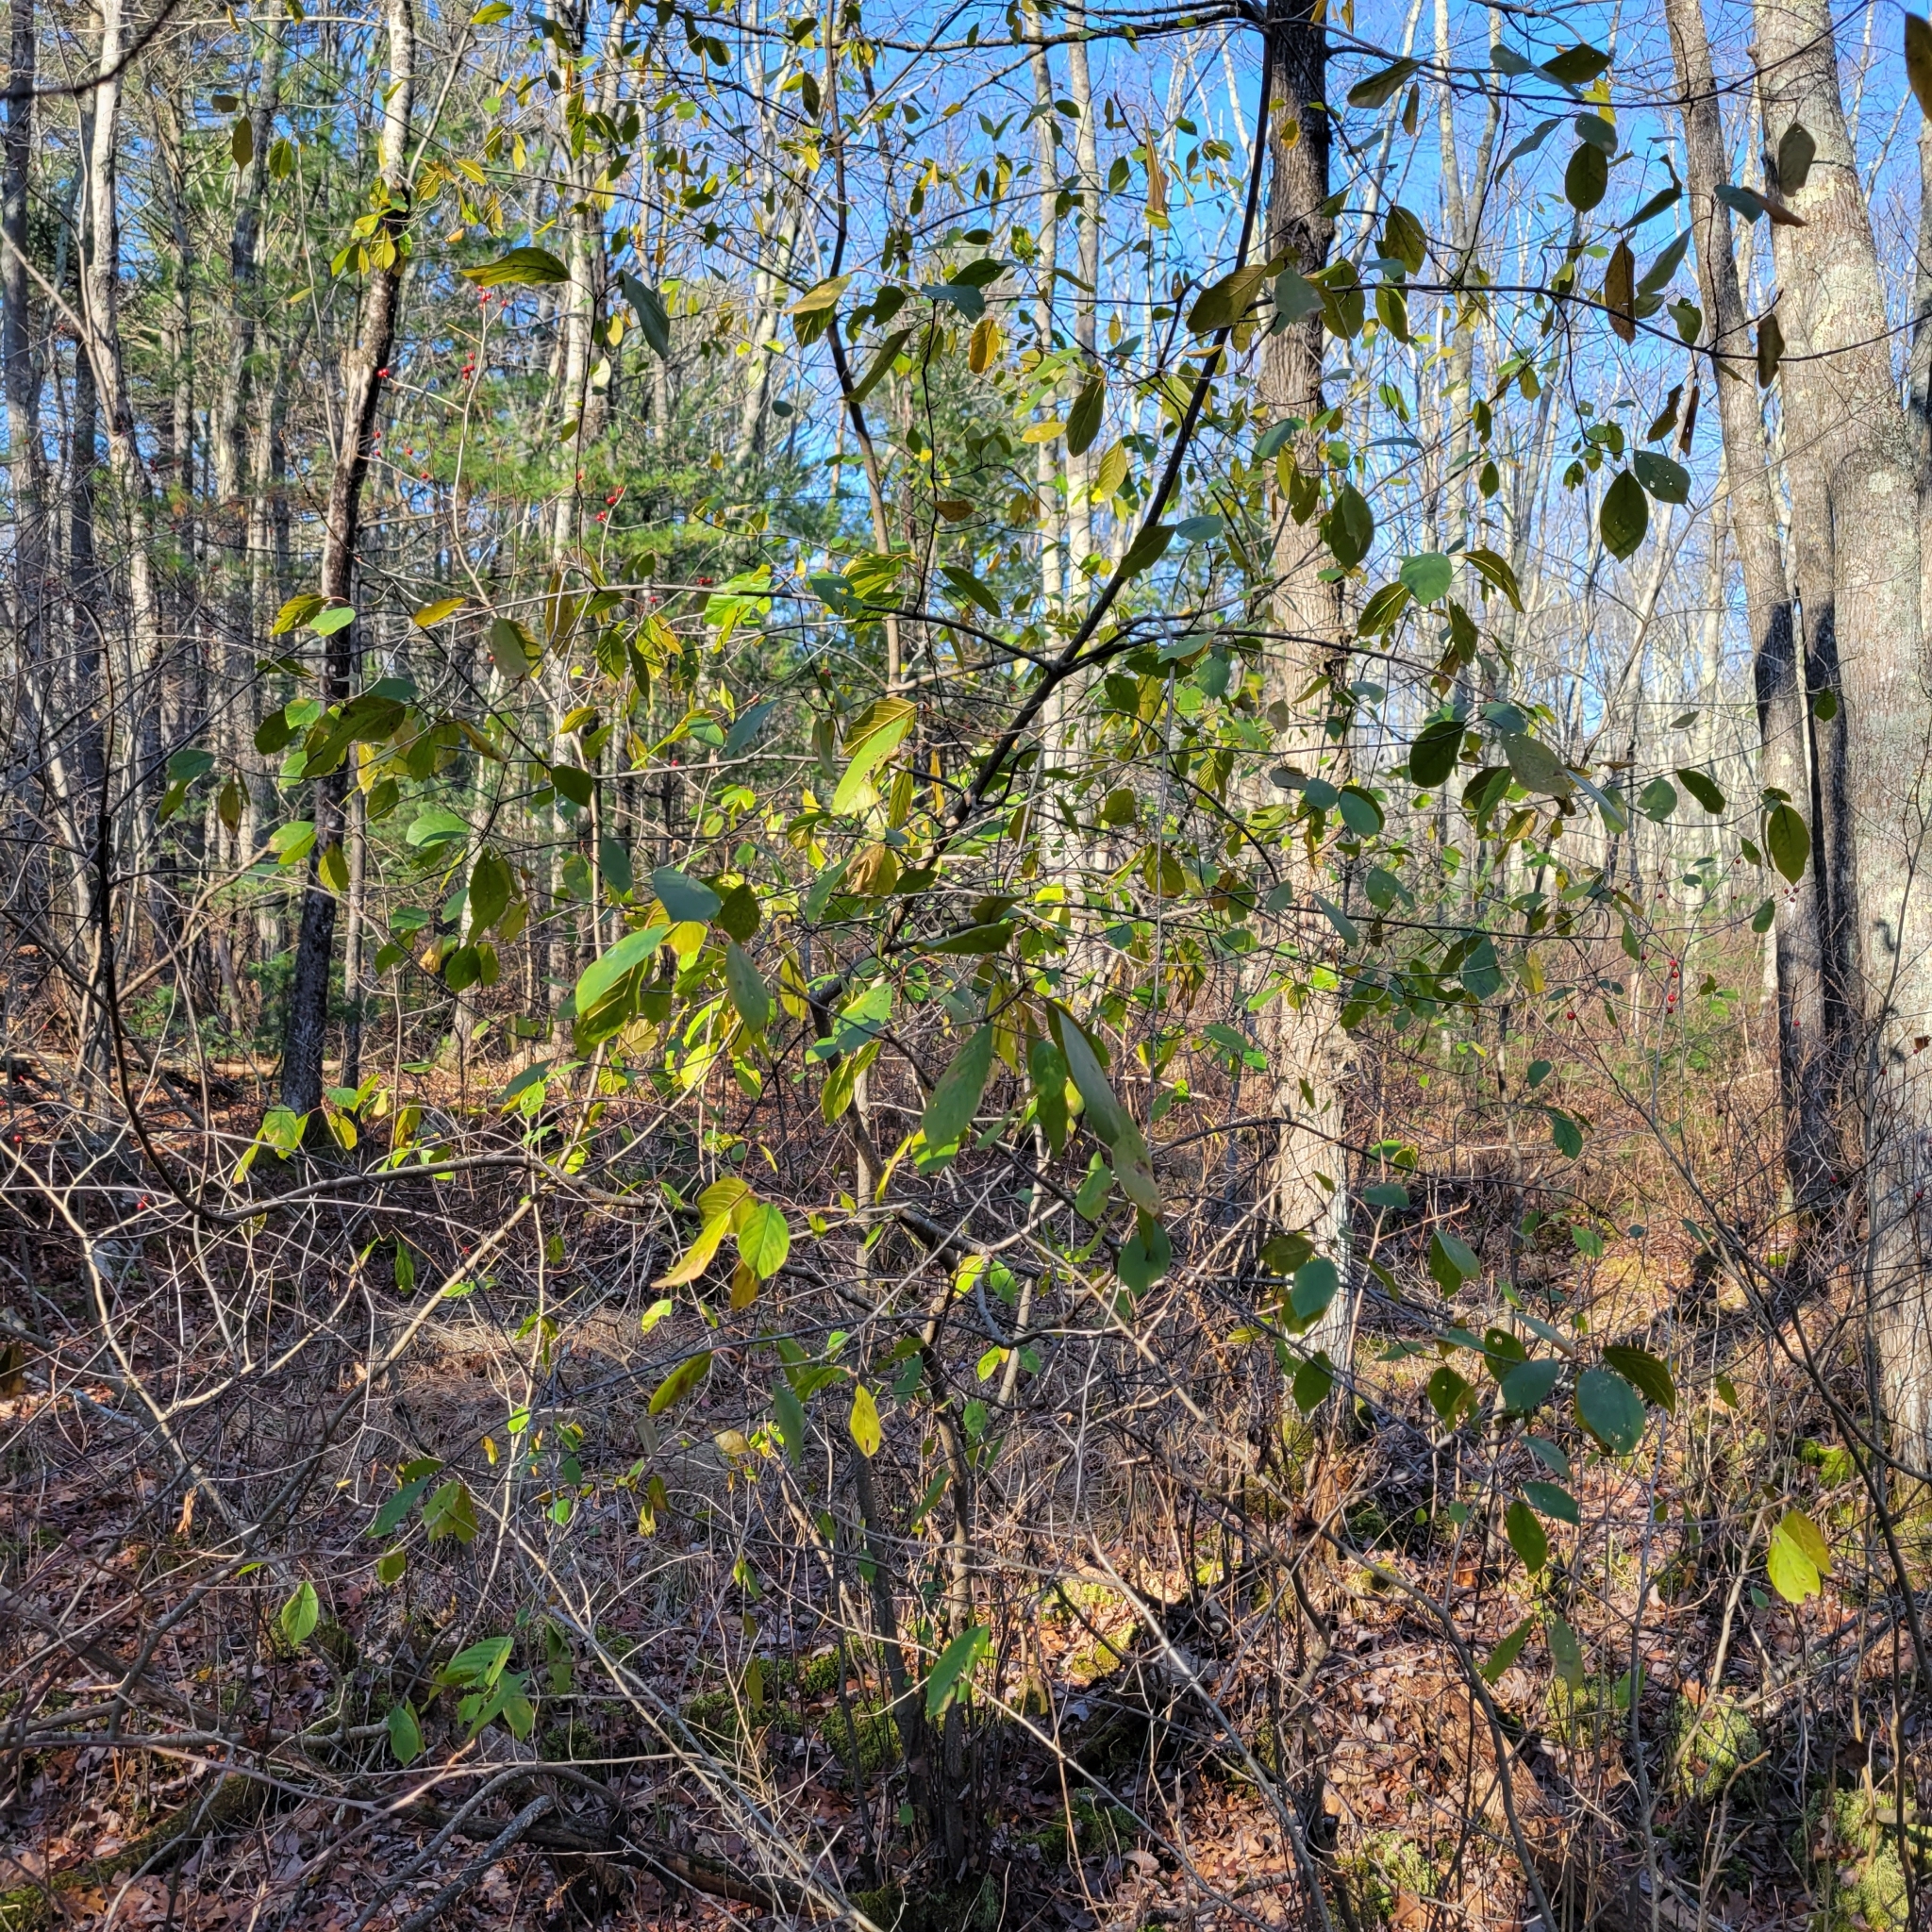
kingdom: Plantae
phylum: Tracheophyta
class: Magnoliopsida
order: Rosales
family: Rhamnaceae
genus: Frangula
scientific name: Frangula alnus
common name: Alder buckthorn
